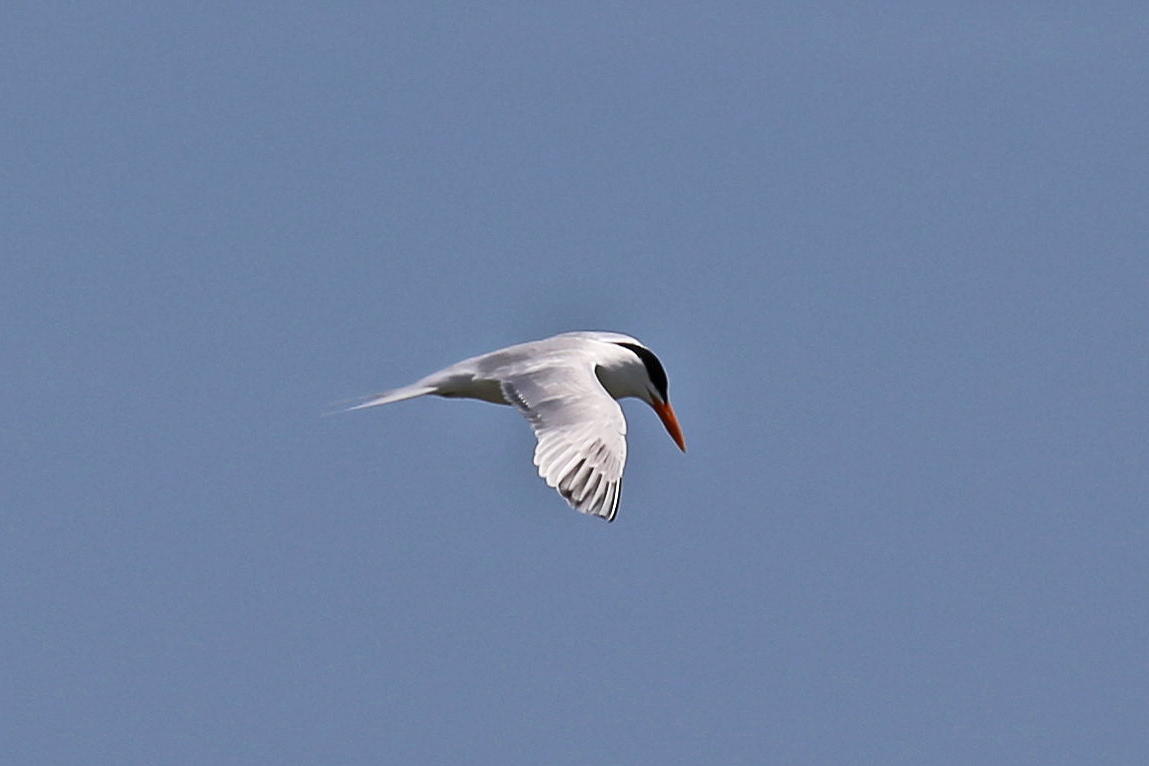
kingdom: Animalia
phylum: Chordata
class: Aves
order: Charadriiformes
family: Laridae
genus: Thalasseus
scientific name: Thalasseus maximus
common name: Royal tern
